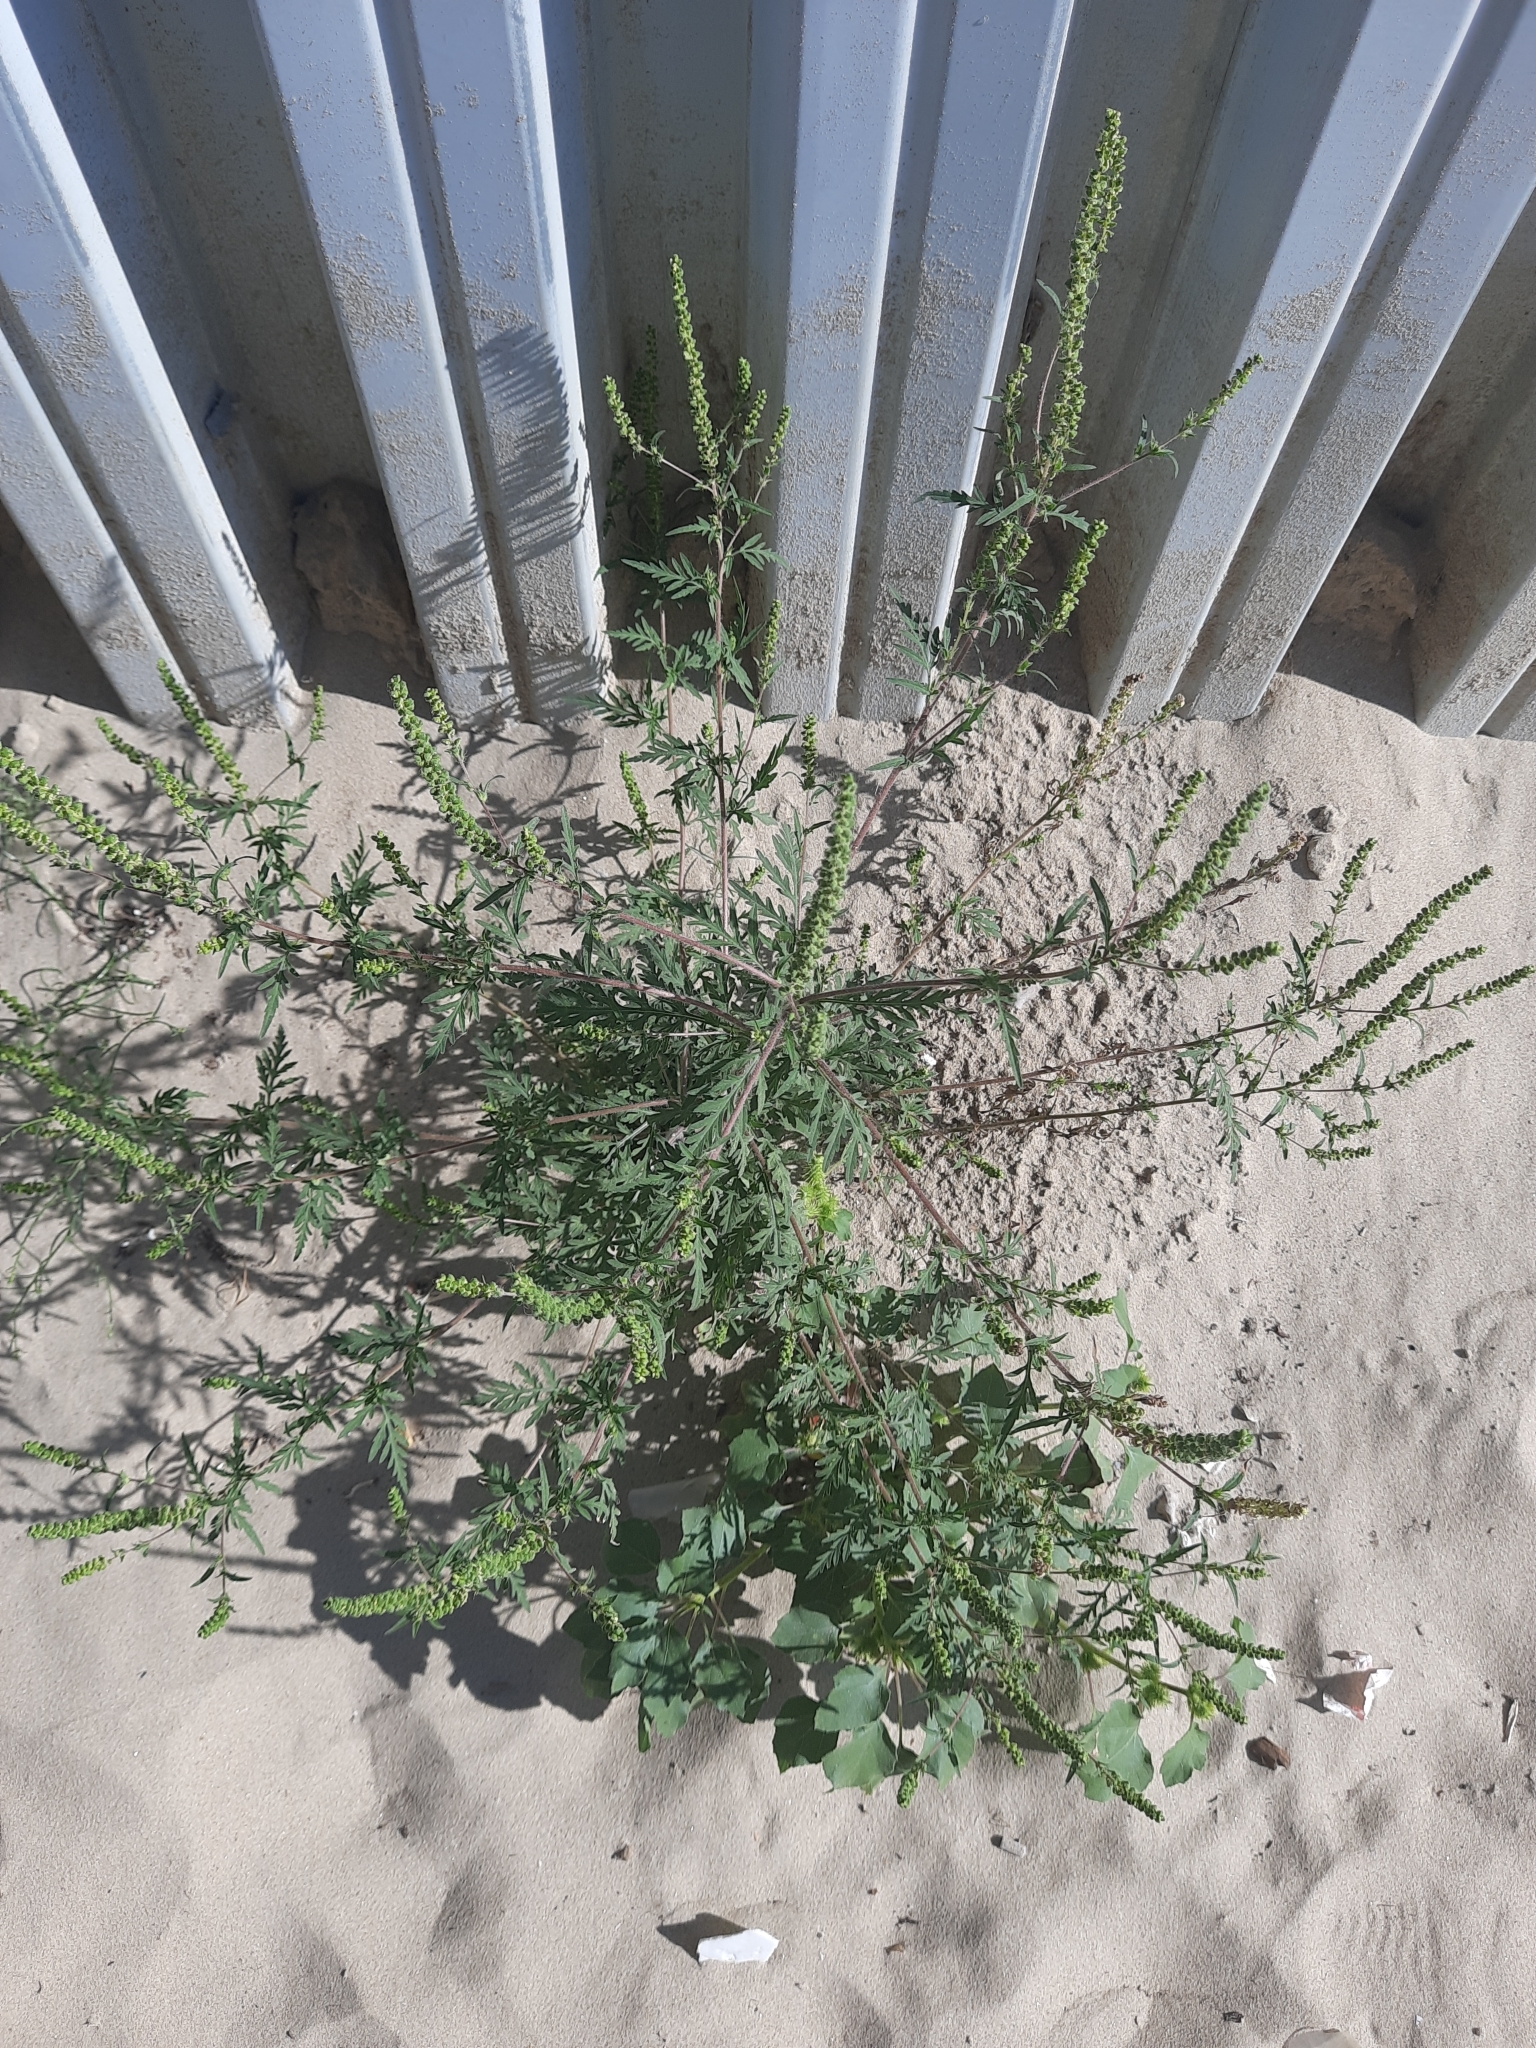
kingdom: Plantae
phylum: Tracheophyta
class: Magnoliopsida
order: Asterales
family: Asteraceae
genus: Ambrosia
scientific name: Ambrosia artemisiifolia
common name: Annual ragweed
